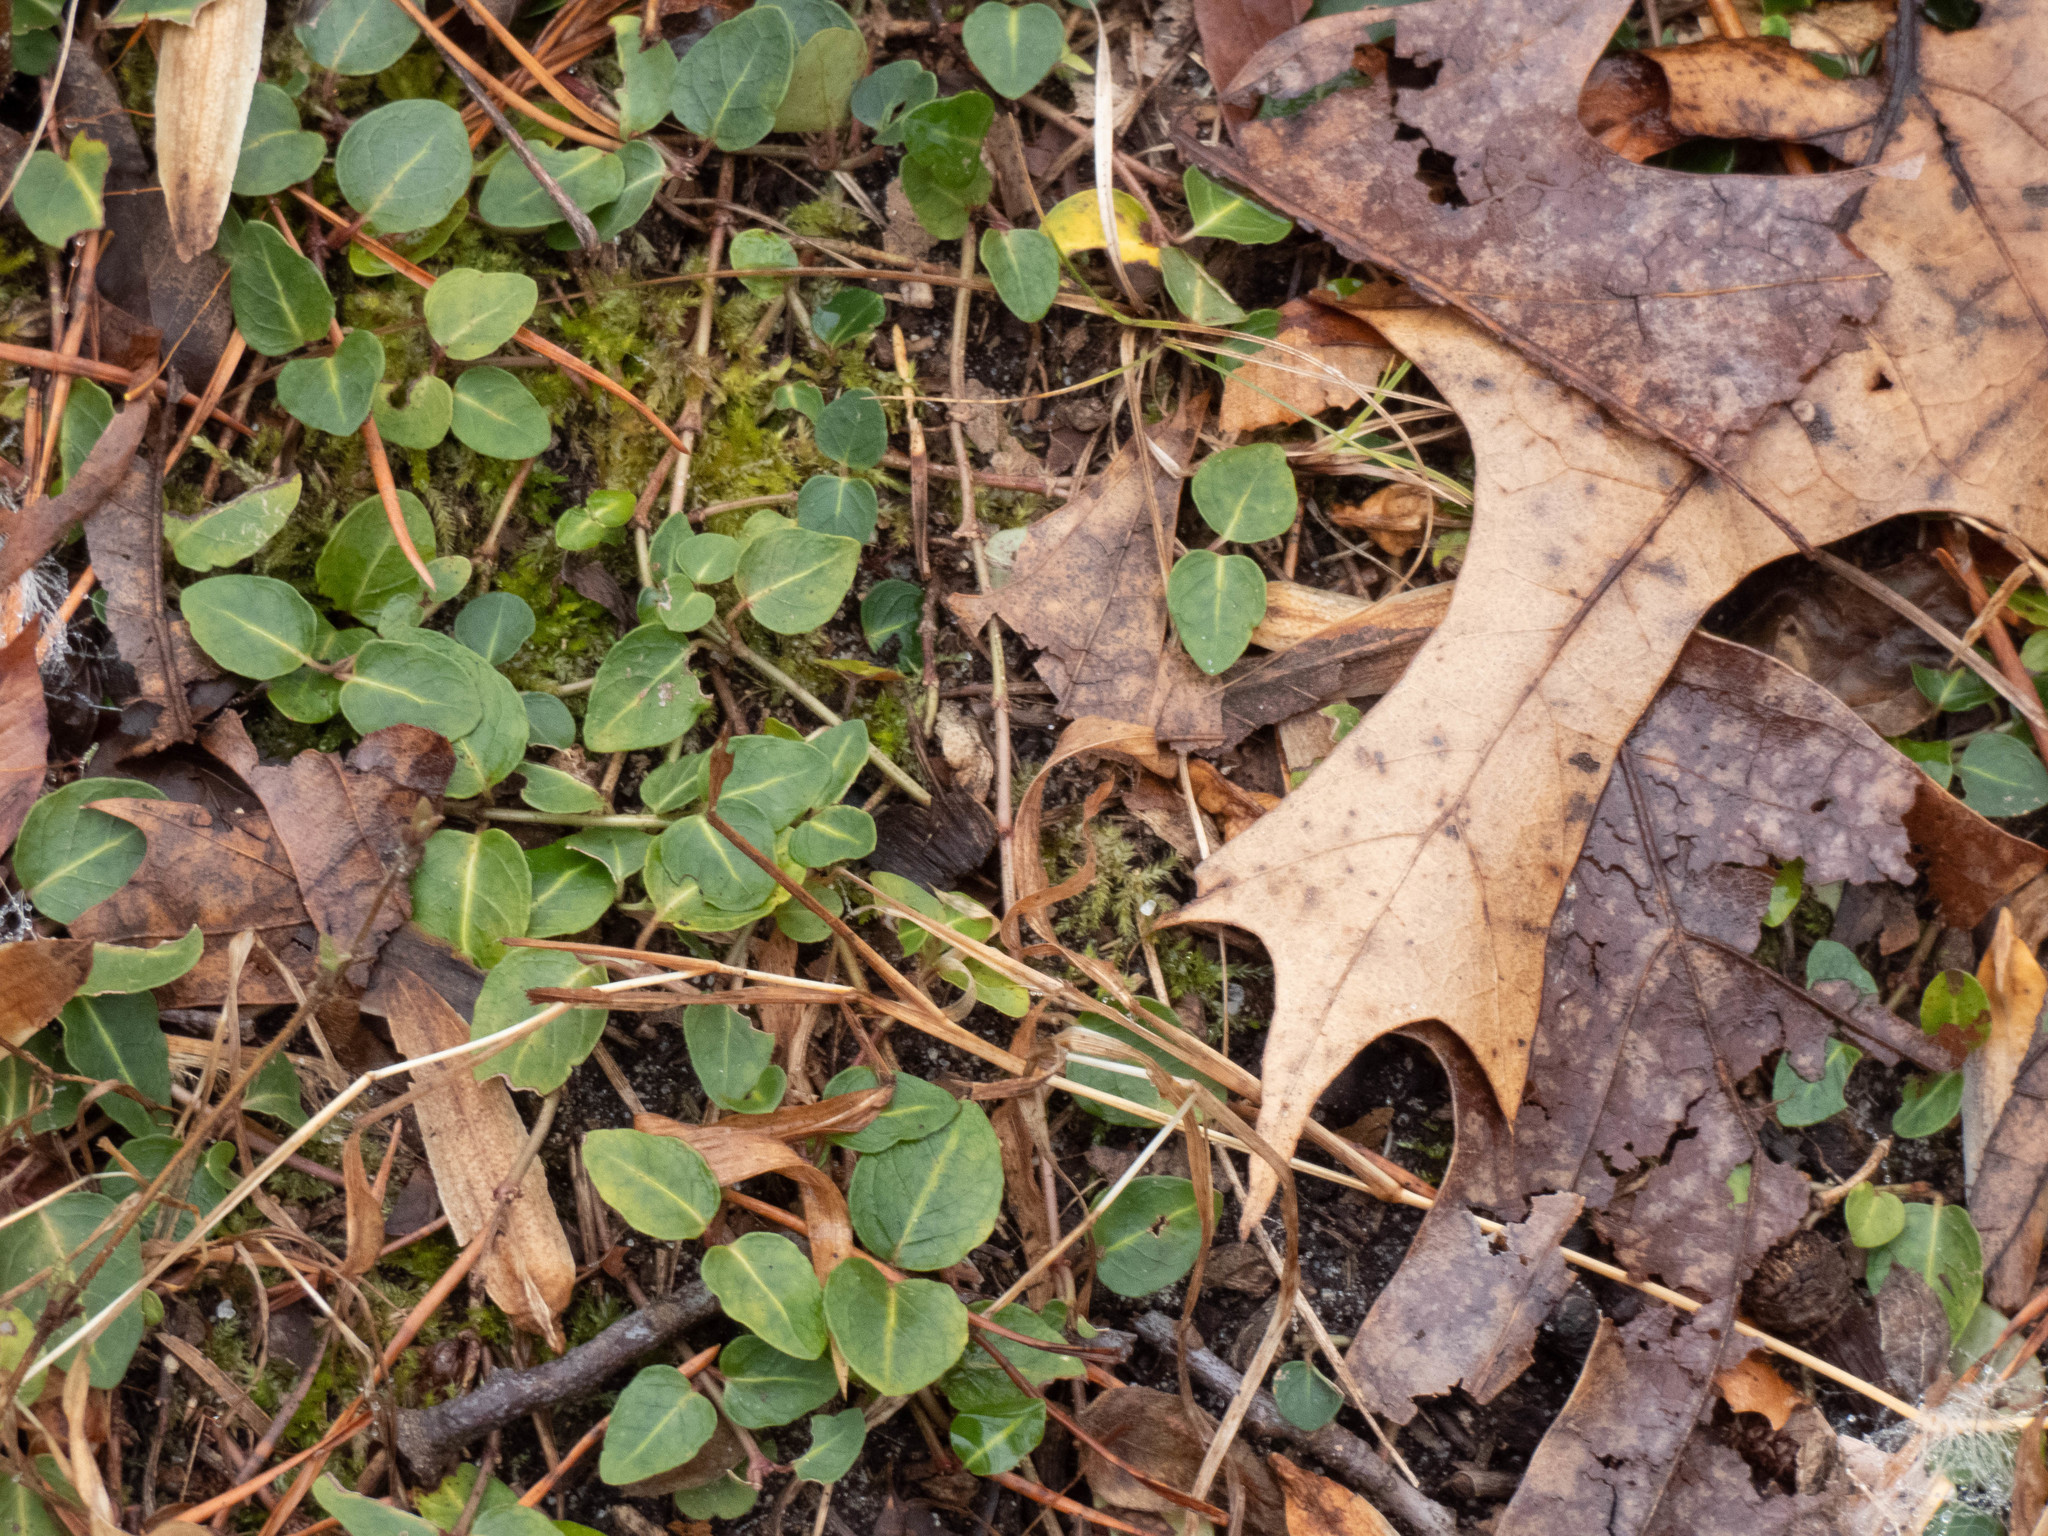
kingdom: Plantae
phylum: Tracheophyta
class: Magnoliopsida
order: Gentianales
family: Rubiaceae
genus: Mitchella
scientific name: Mitchella repens
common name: Partridge-berry
